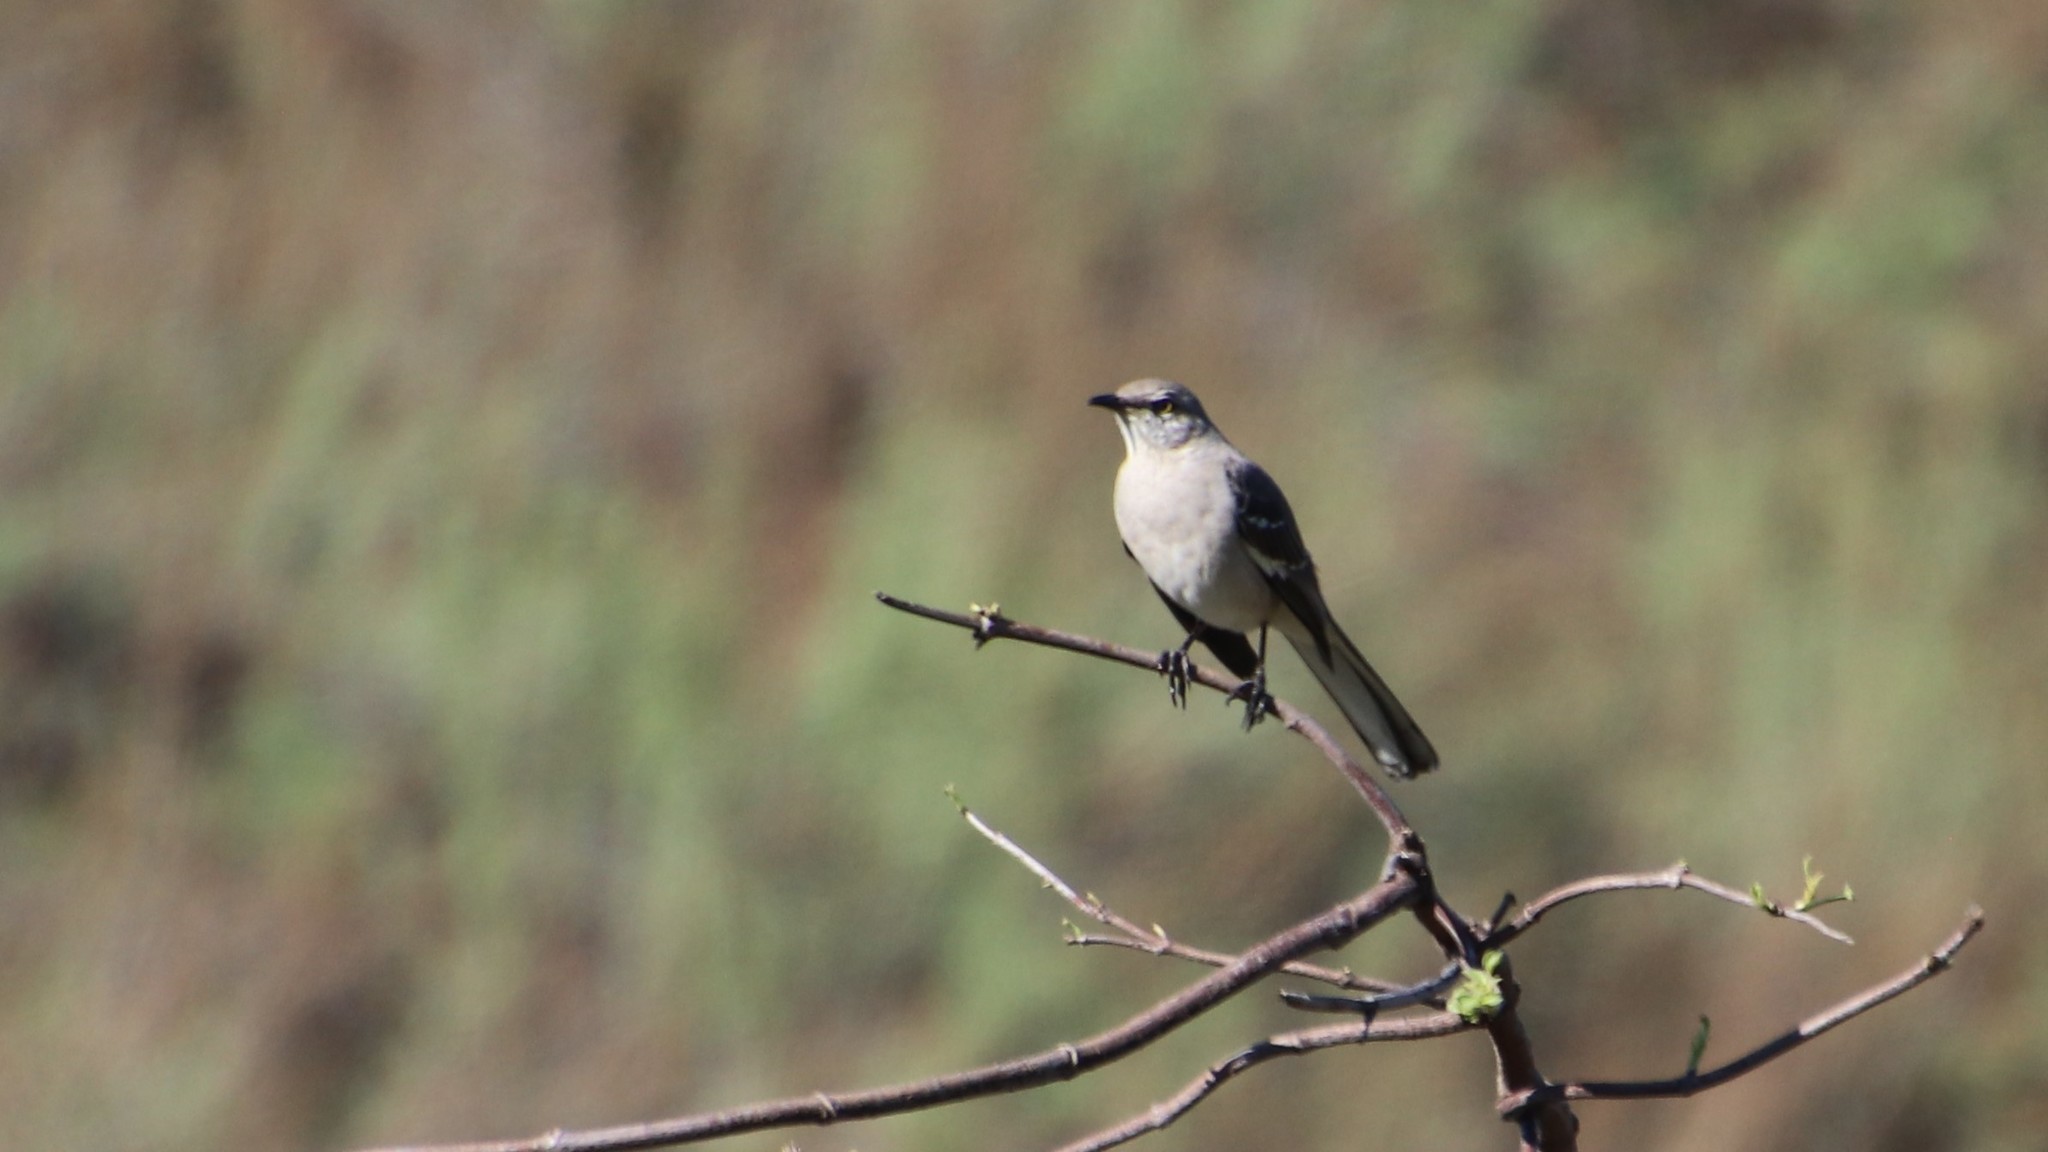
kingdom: Animalia
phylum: Chordata
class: Aves
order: Passeriformes
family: Mimidae
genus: Mimus
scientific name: Mimus polyglottos
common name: Northern mockingbird
